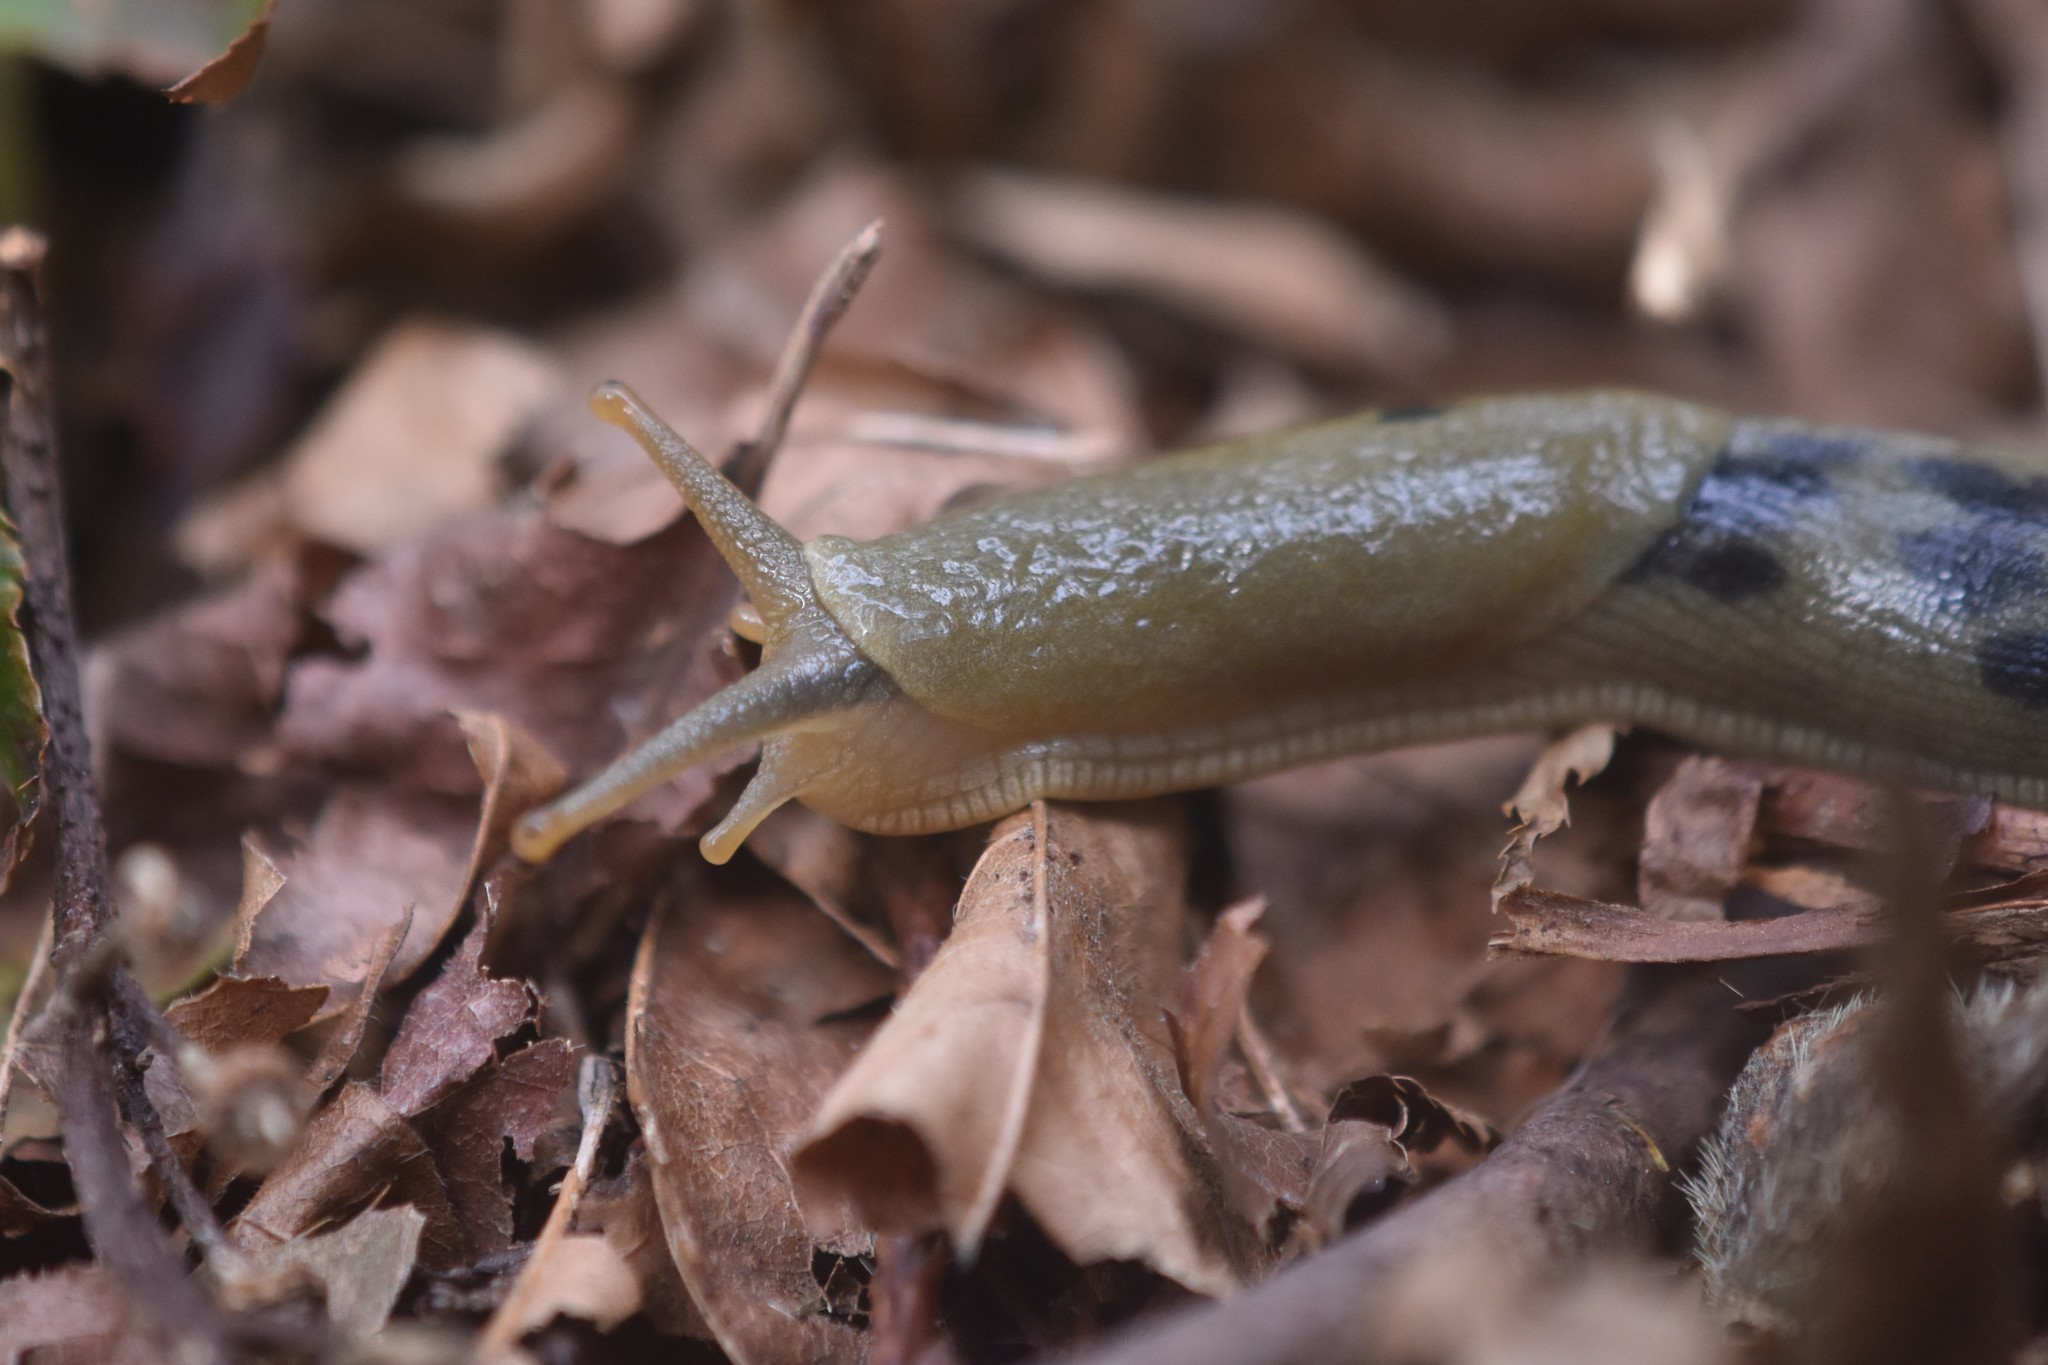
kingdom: Animalia
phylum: Mollusca
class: Gastropoda
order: Stylommatophora
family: Ariolimacidae
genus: Ariolimax
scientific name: Ariolimax columbianus
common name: Pacific banana slug
